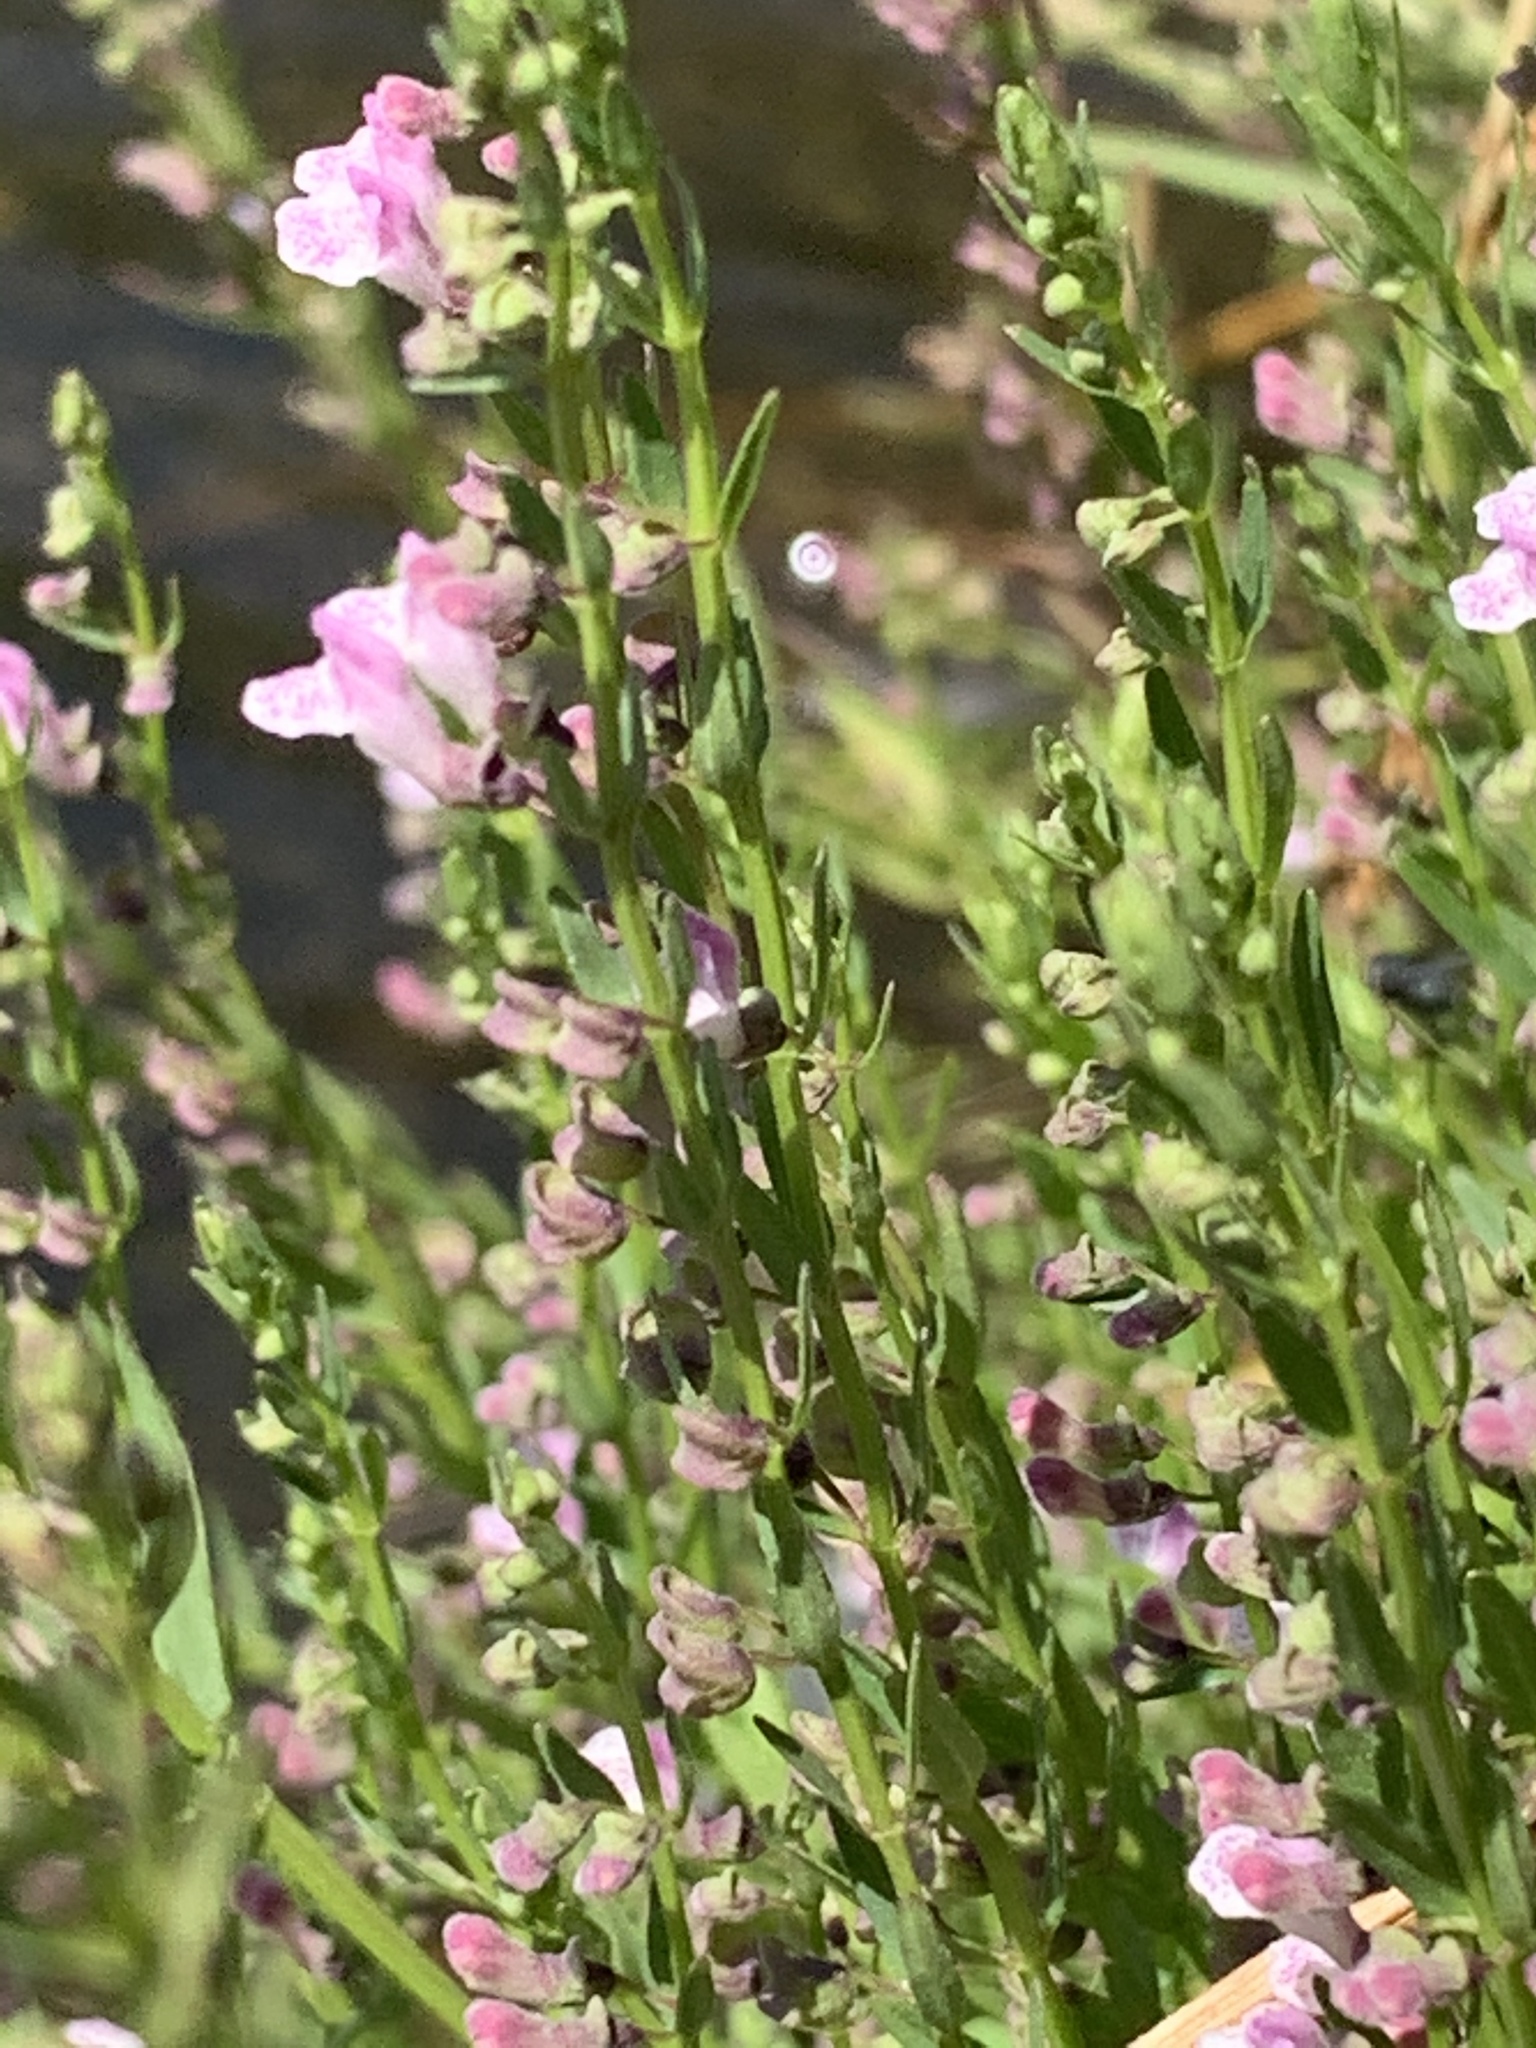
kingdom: Plantae
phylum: Tracheophyta
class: Magnoliopsida
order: Lamiales
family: Lamiaceae
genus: Scutellaria
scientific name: Scutellaria racemosa
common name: South american skullcap
